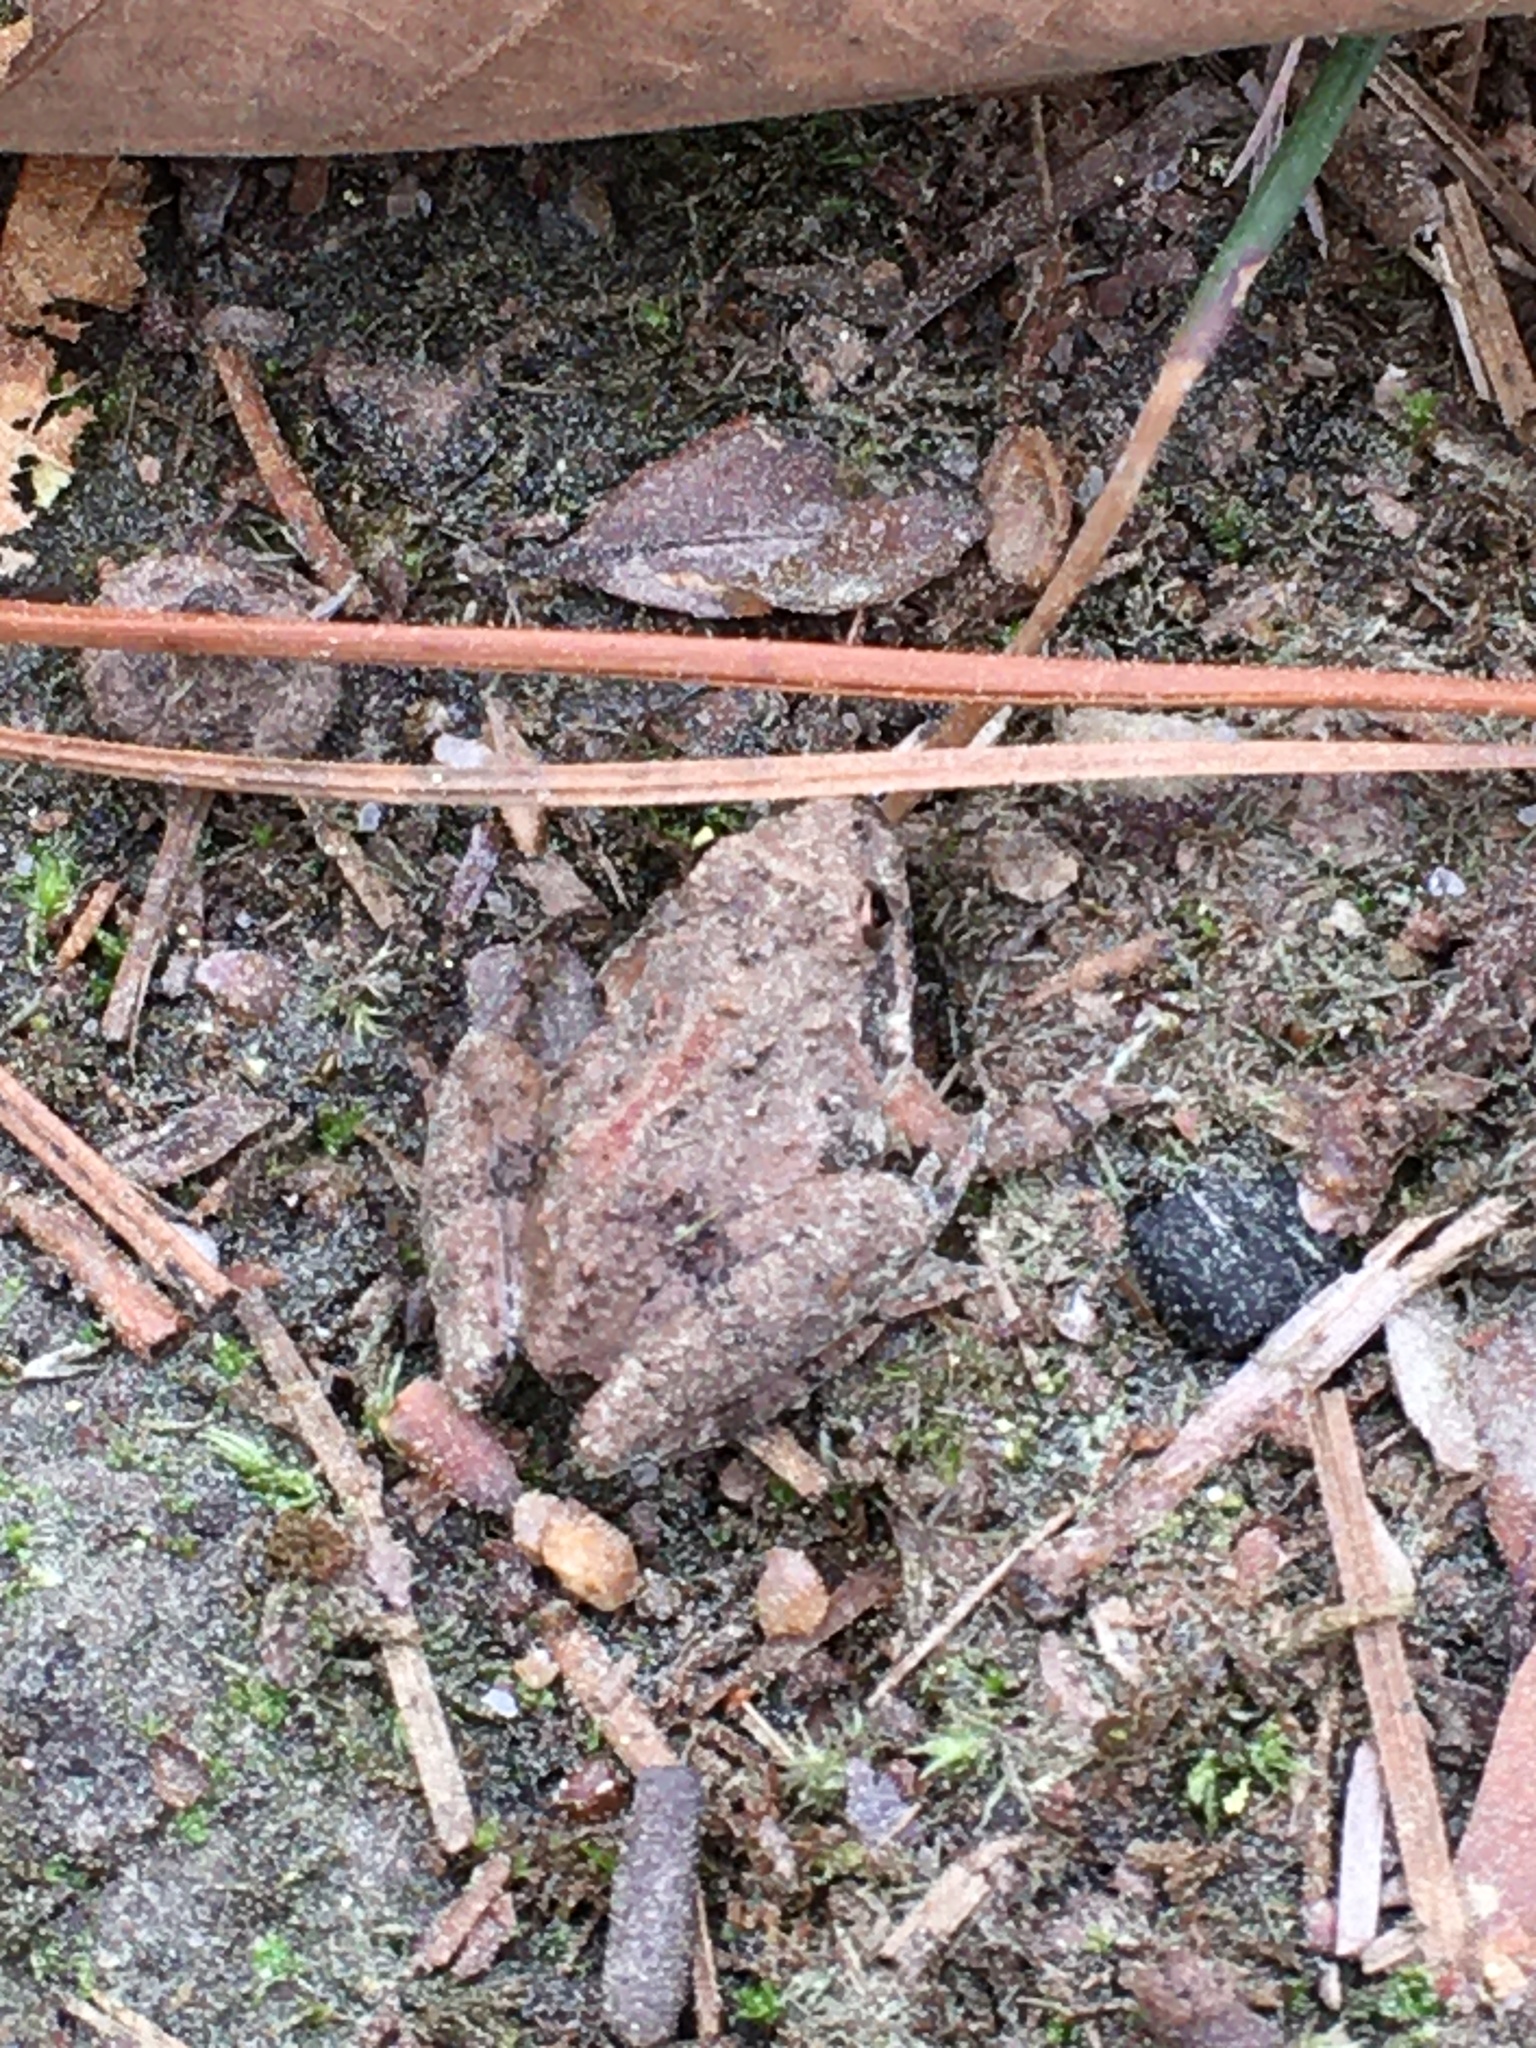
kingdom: Animalia
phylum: Chordata
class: Amphibia
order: Anura
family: Hylidae
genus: Acris
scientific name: Acris crepitans
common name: Northern cricket frog
